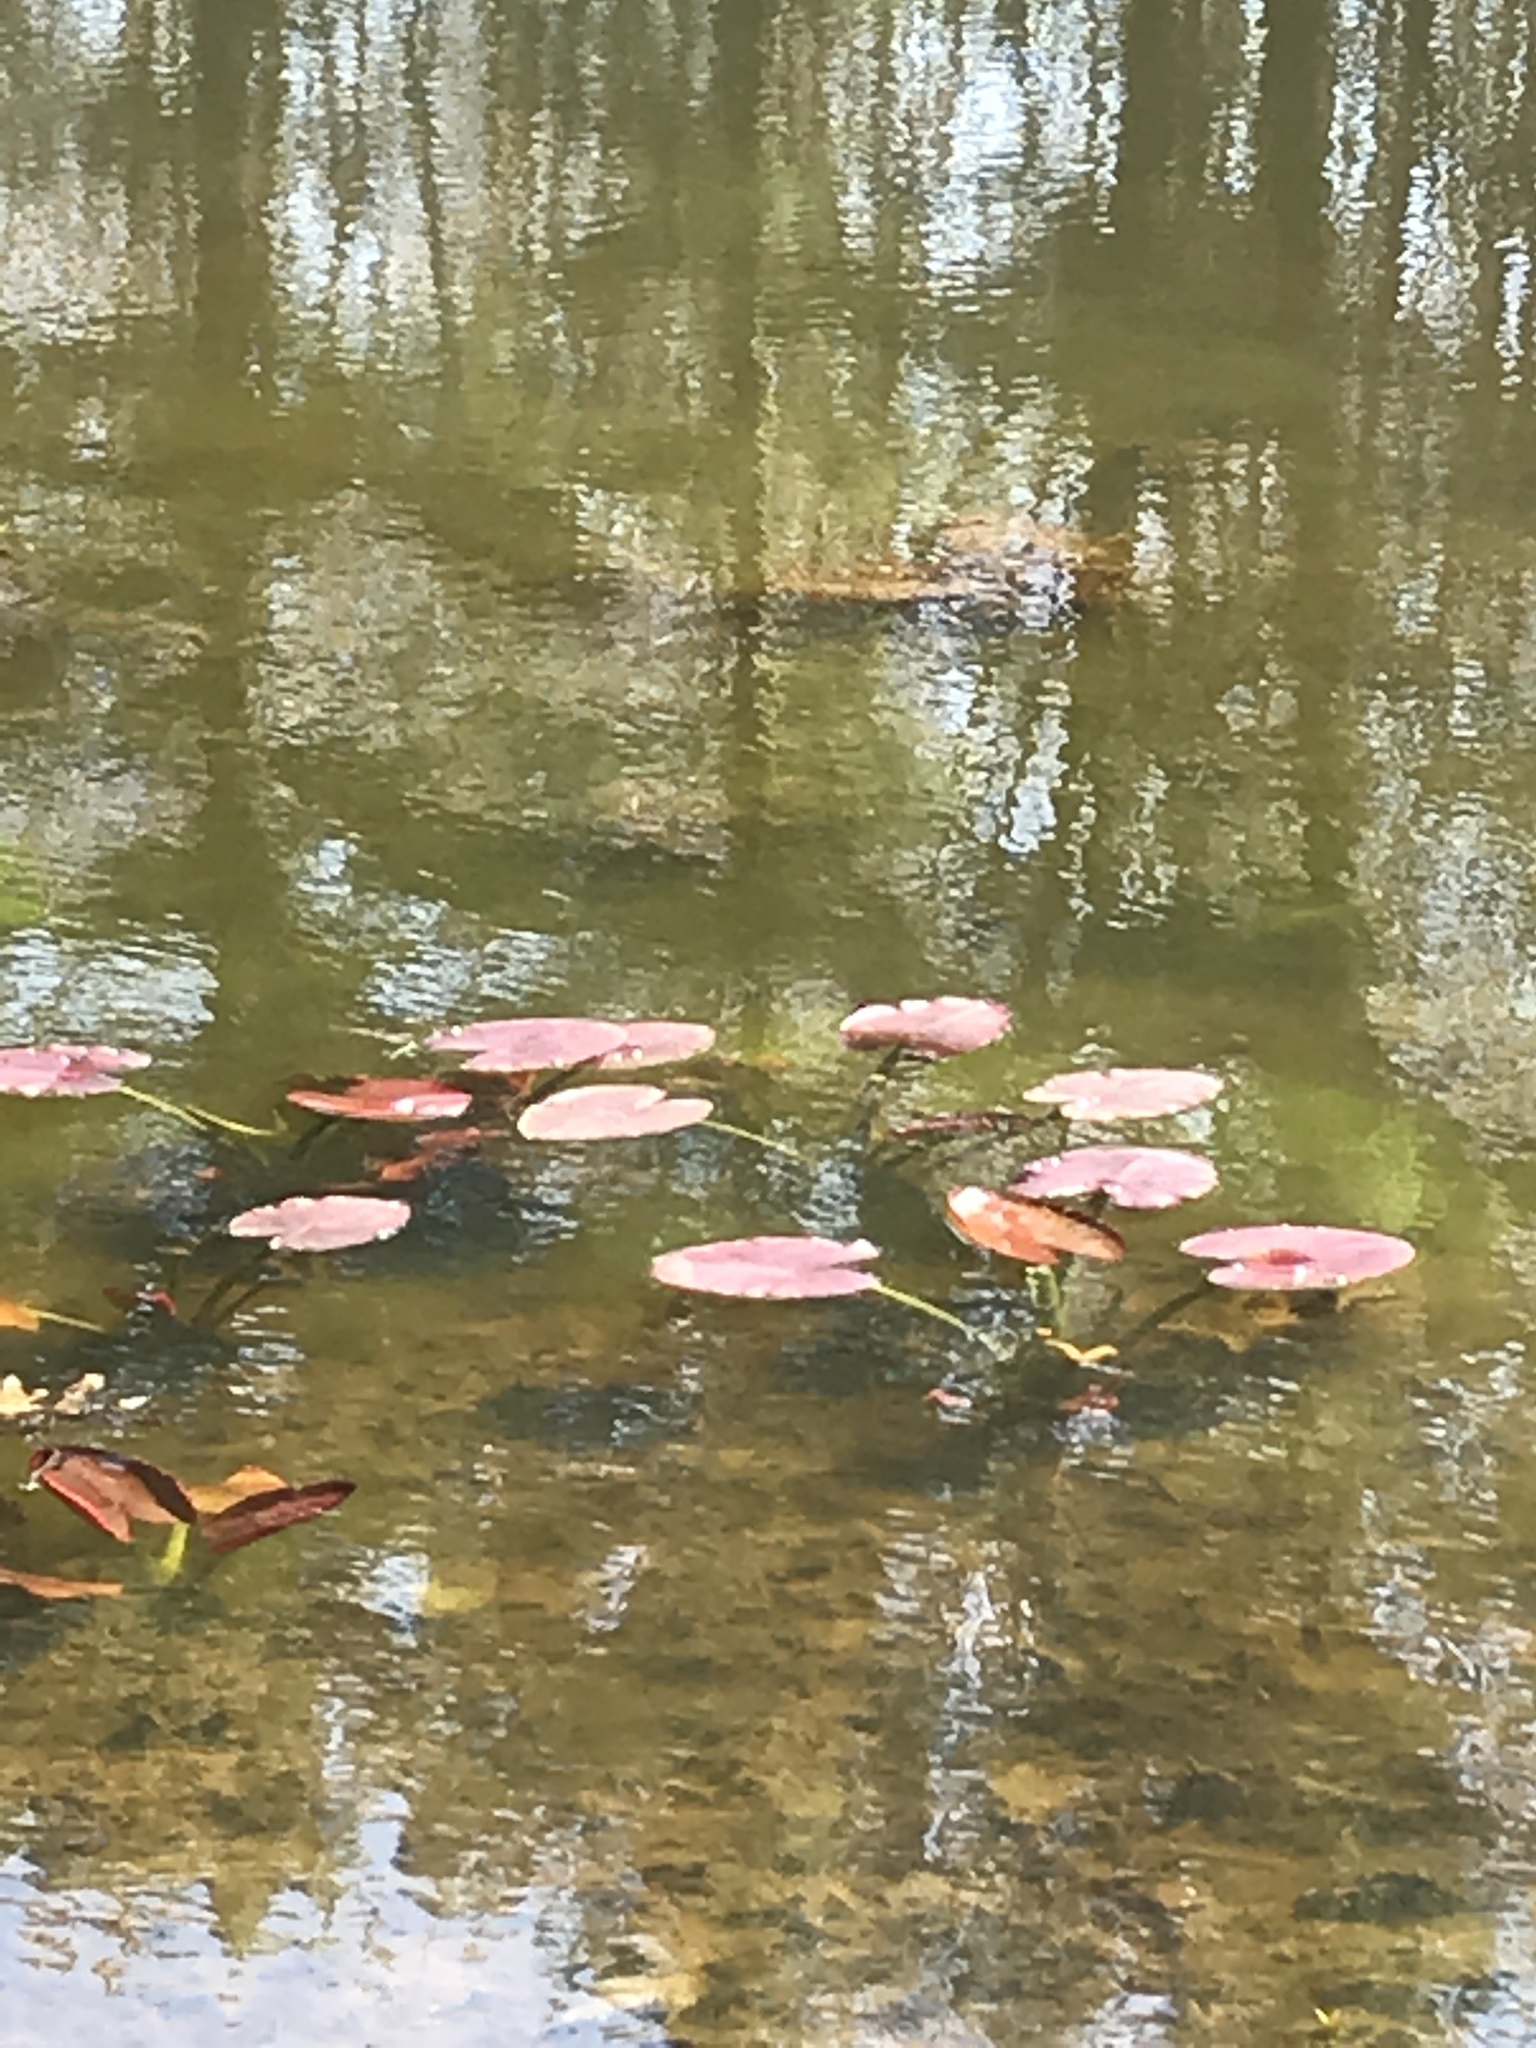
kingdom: Plantae
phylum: Tracheophyta
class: Magnoliopsida
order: Nymphaeales
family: Nymphaeaceae
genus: Nuphar
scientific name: Nuphar advena
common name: Spatter-dock
